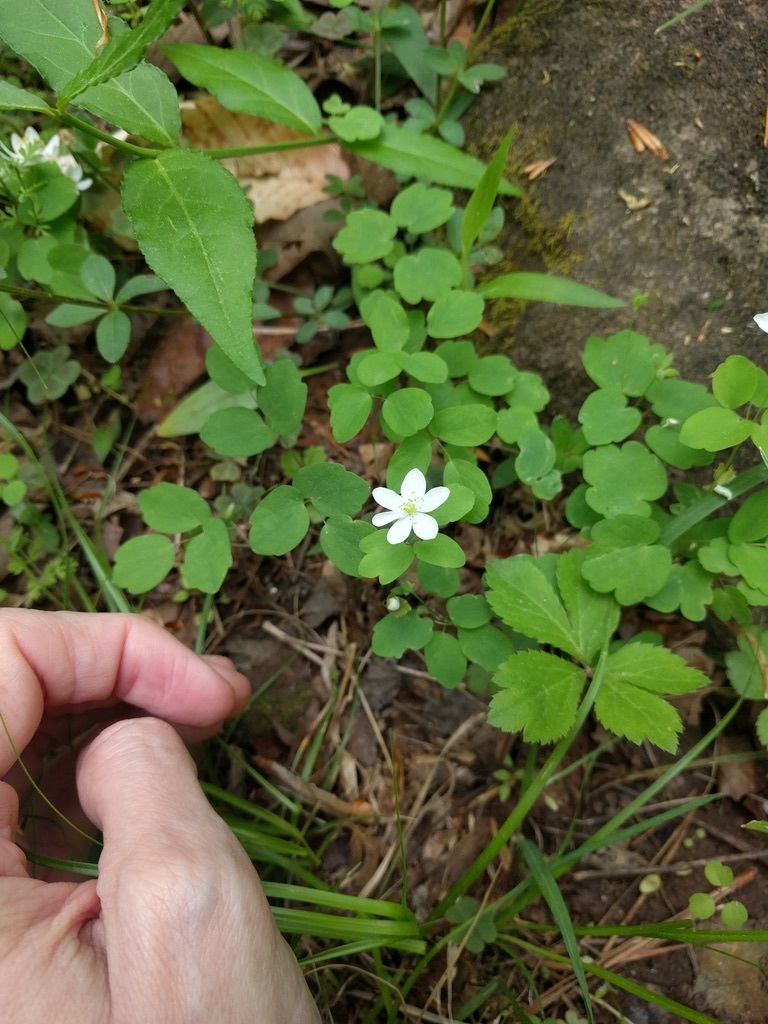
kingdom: Plantae
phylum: Tracheophyta
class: Magnoliopsida
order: Ranunculales
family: Ranunculaceae
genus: Thalictrum
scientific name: Thalictrum thalictroides
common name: Rue-anemone
